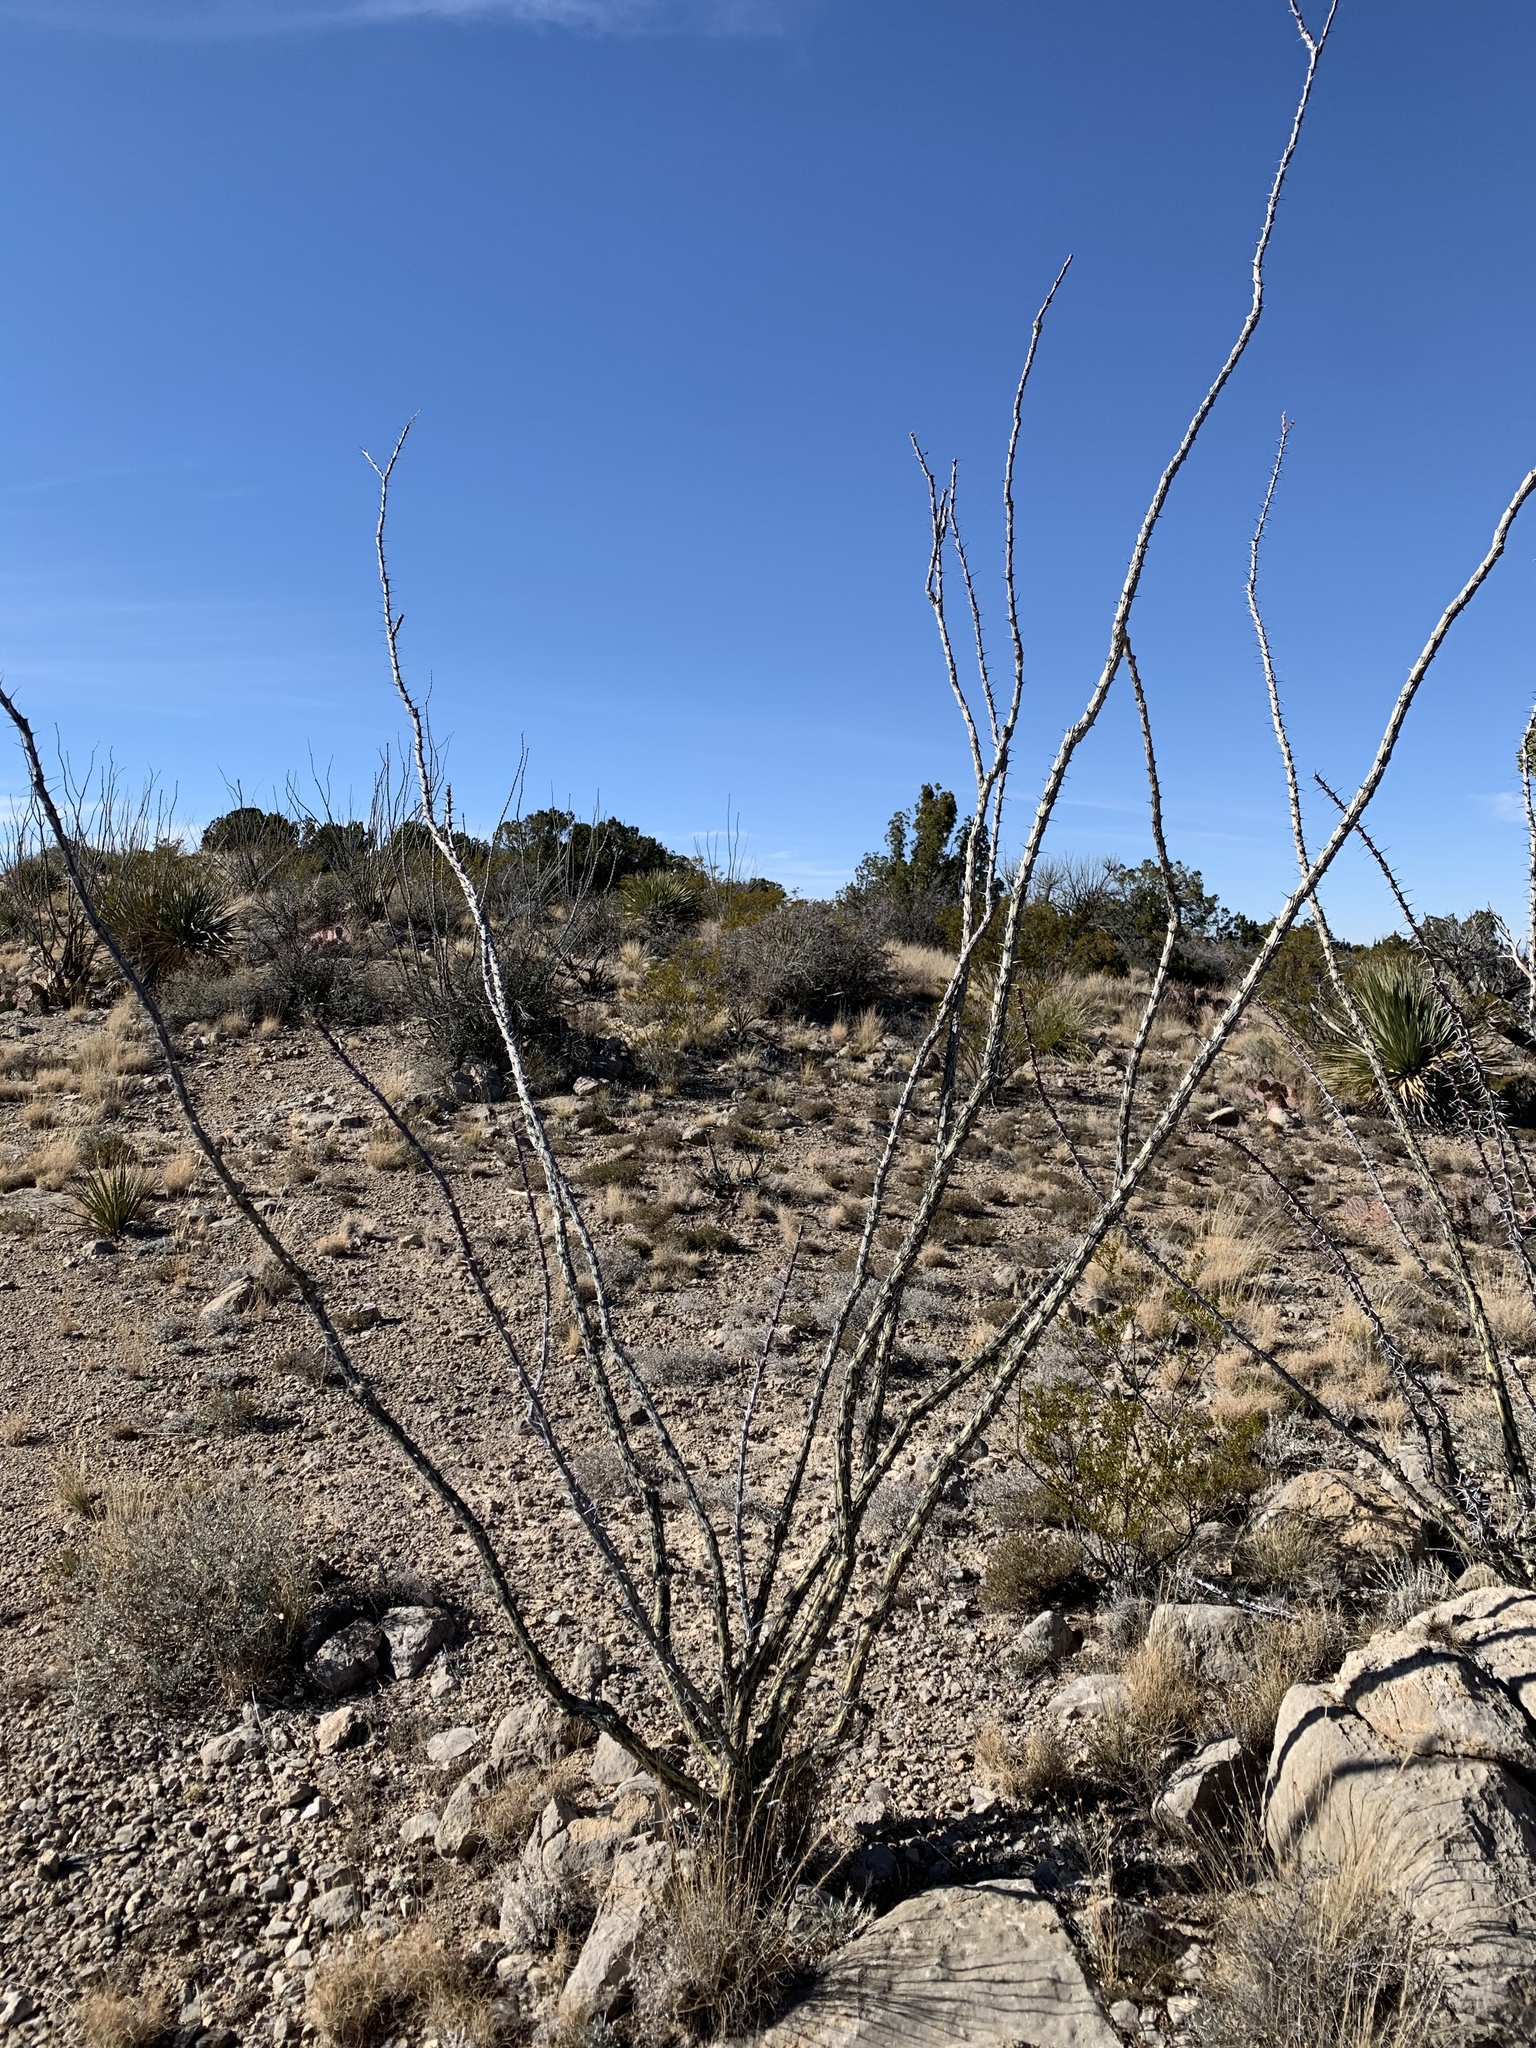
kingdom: Plantae
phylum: Tracheophyta
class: Magnoliopsida
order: Ericales
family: Fouquieriaceae
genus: Fouquieria
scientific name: Fouquieria splendens
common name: Vine-cactus
